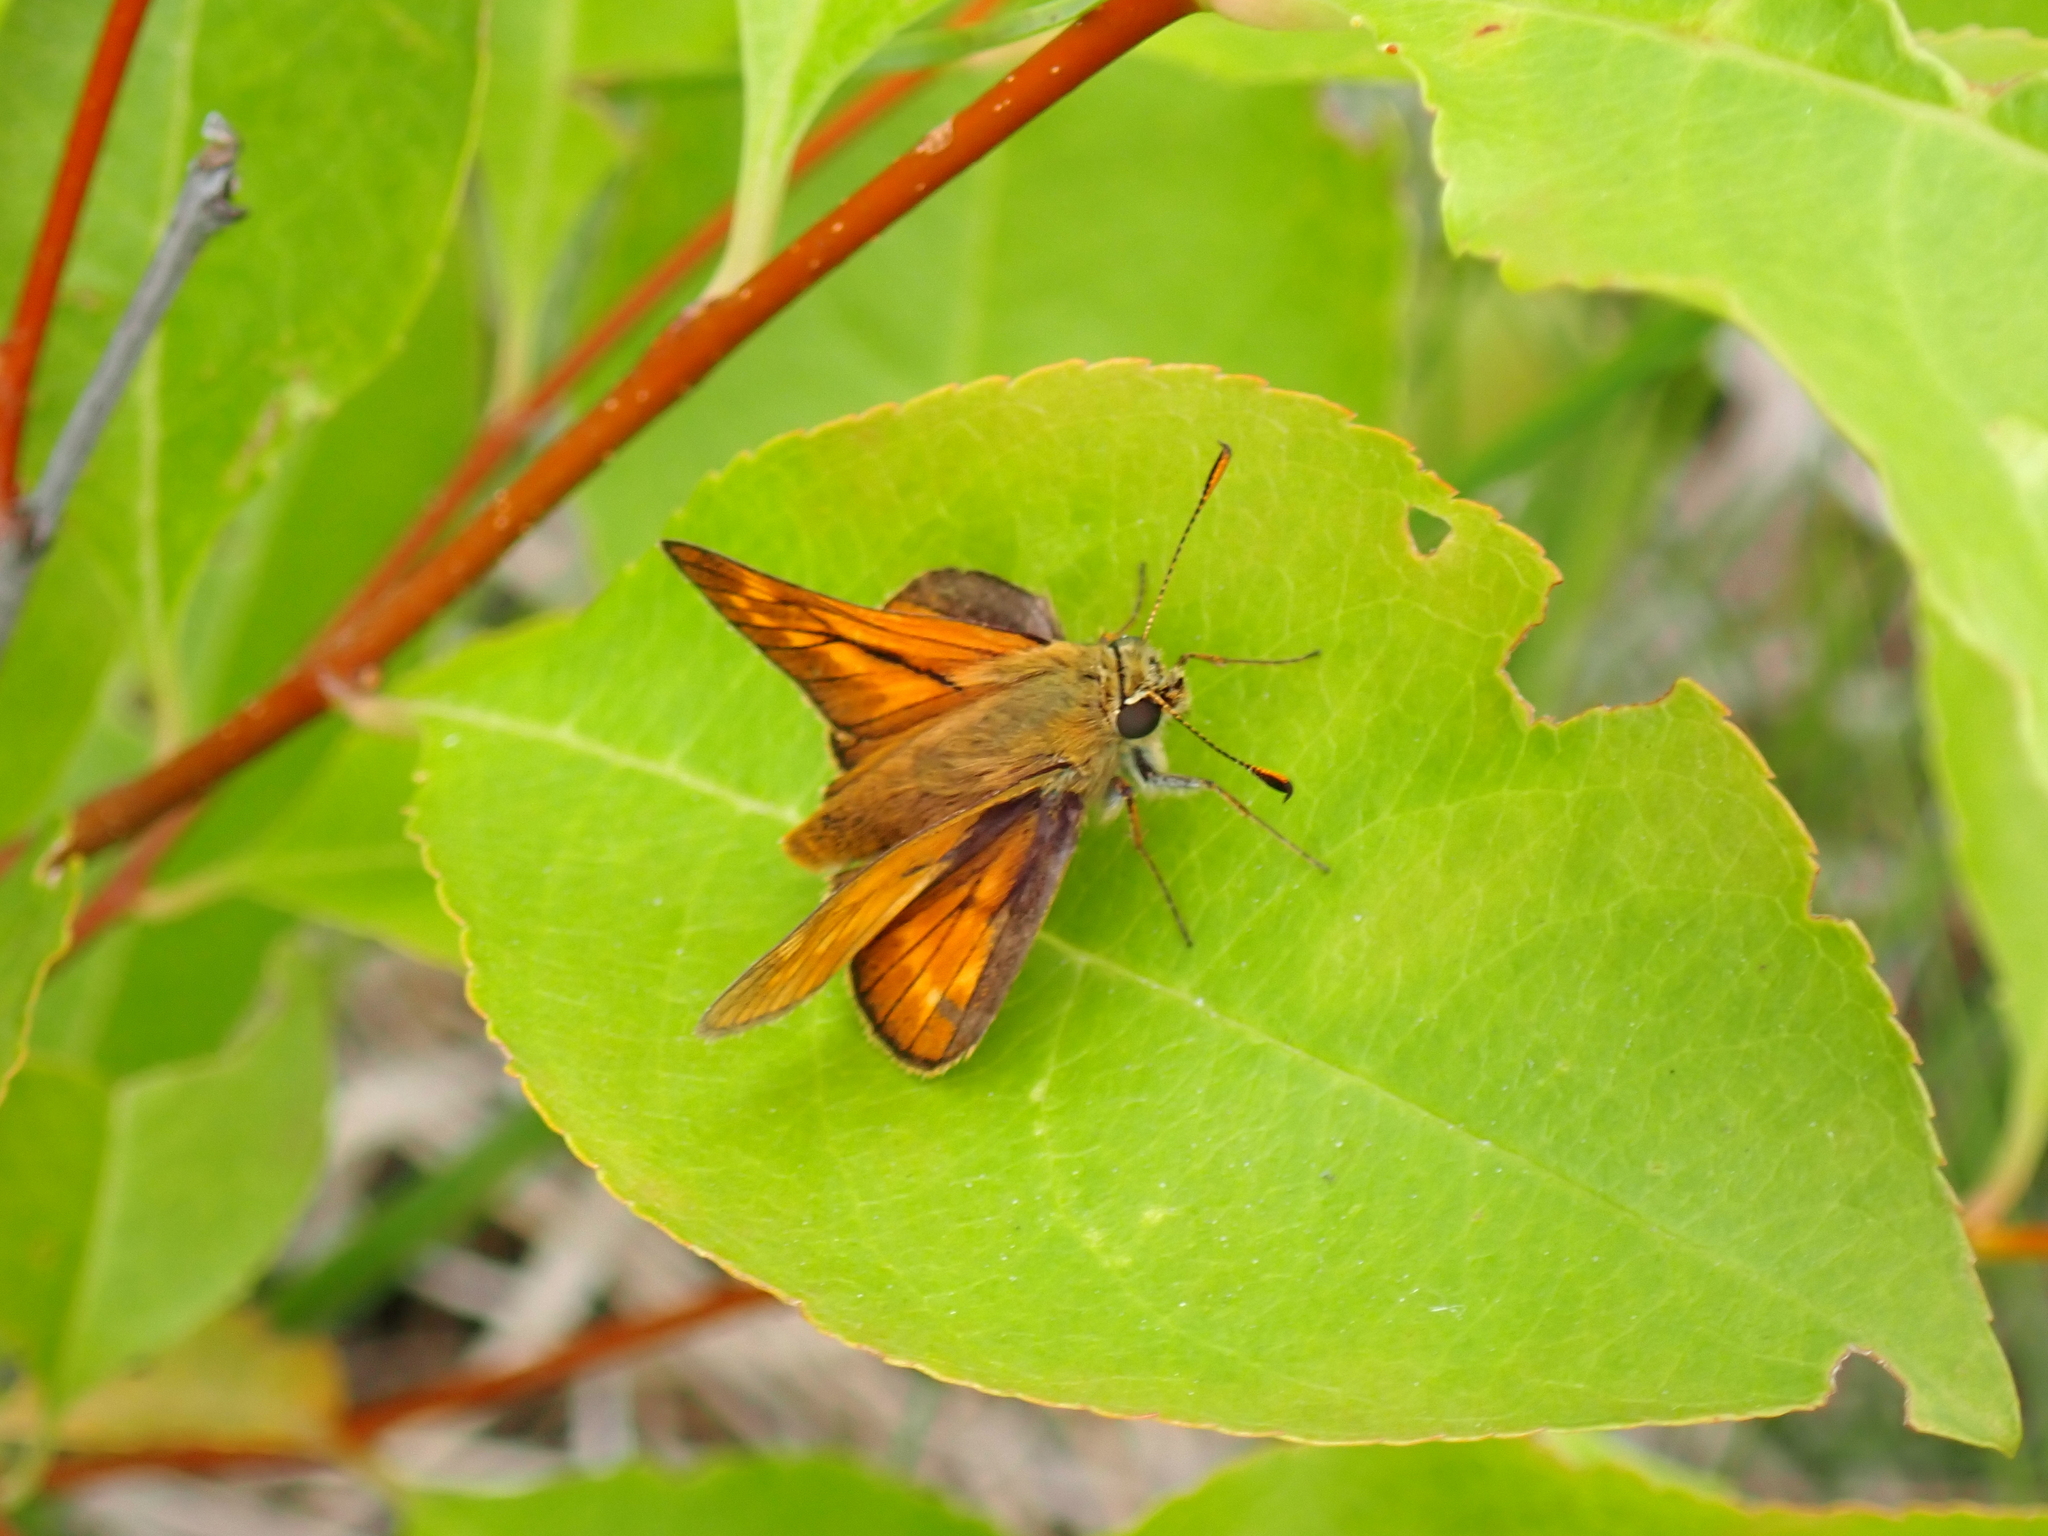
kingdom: Animalia
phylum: Arthropoda
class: Insecta
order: Lepidoptera
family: Hesperiidae
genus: Ochlodes
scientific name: Ochlodes venata
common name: Large skipper
